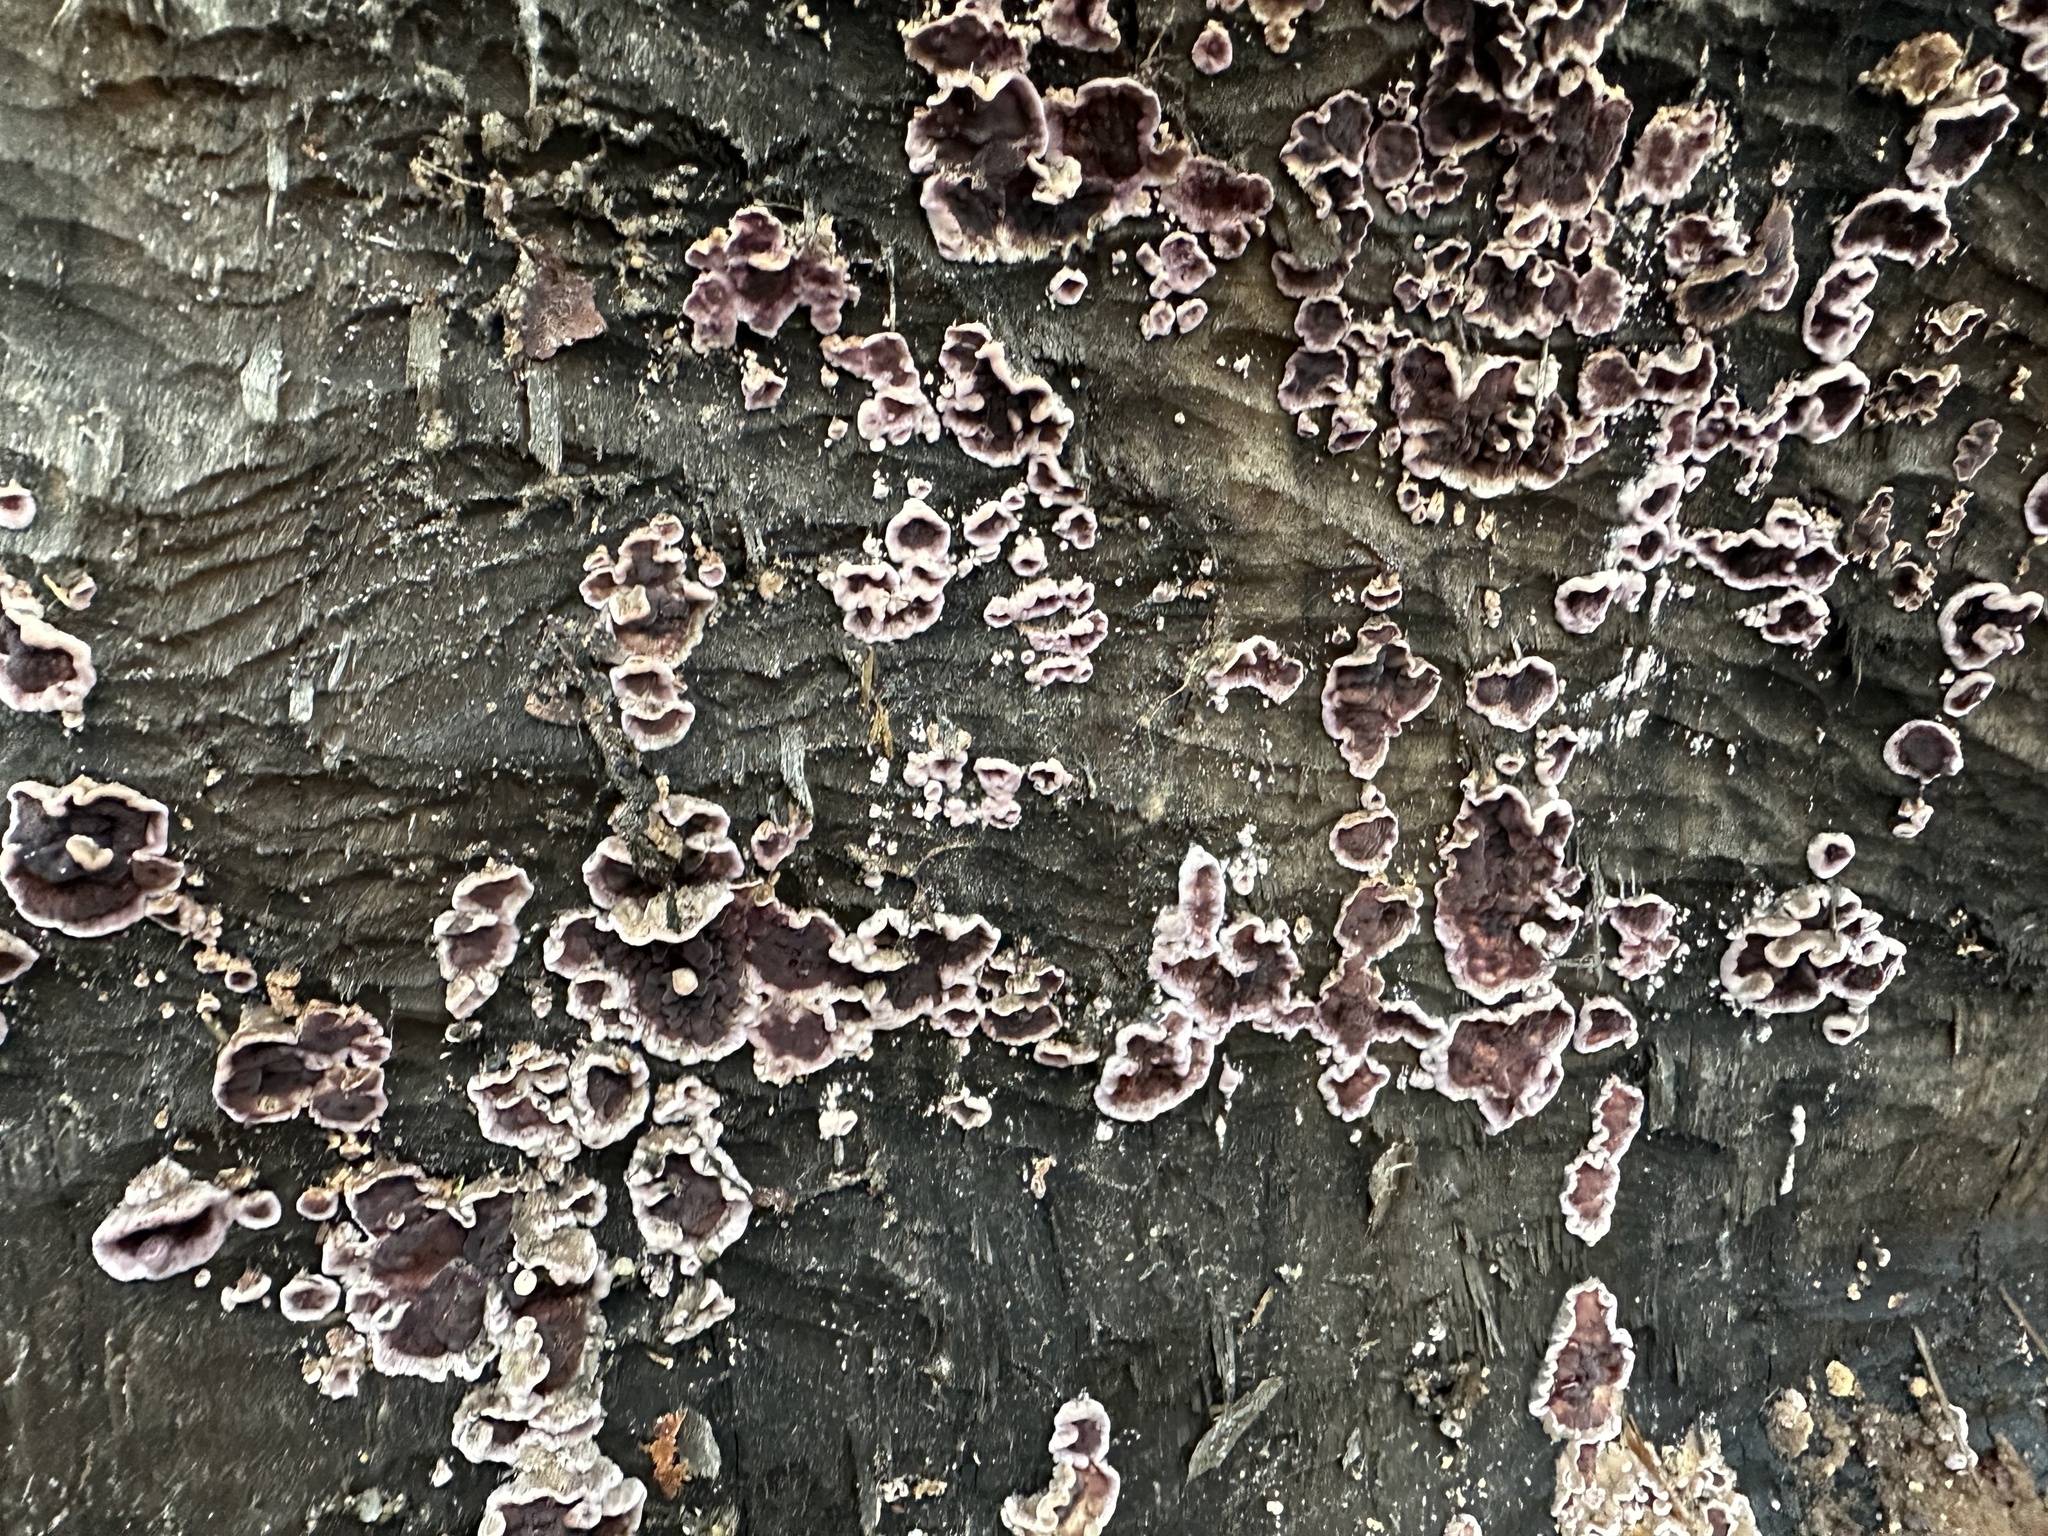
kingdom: Fungi
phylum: Basidiomycota
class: Agaricomycetes
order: Agaricales
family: Cyphellaceae
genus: Chondrostereum
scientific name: Chondrostereum purpureum
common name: Silver leaf disease
